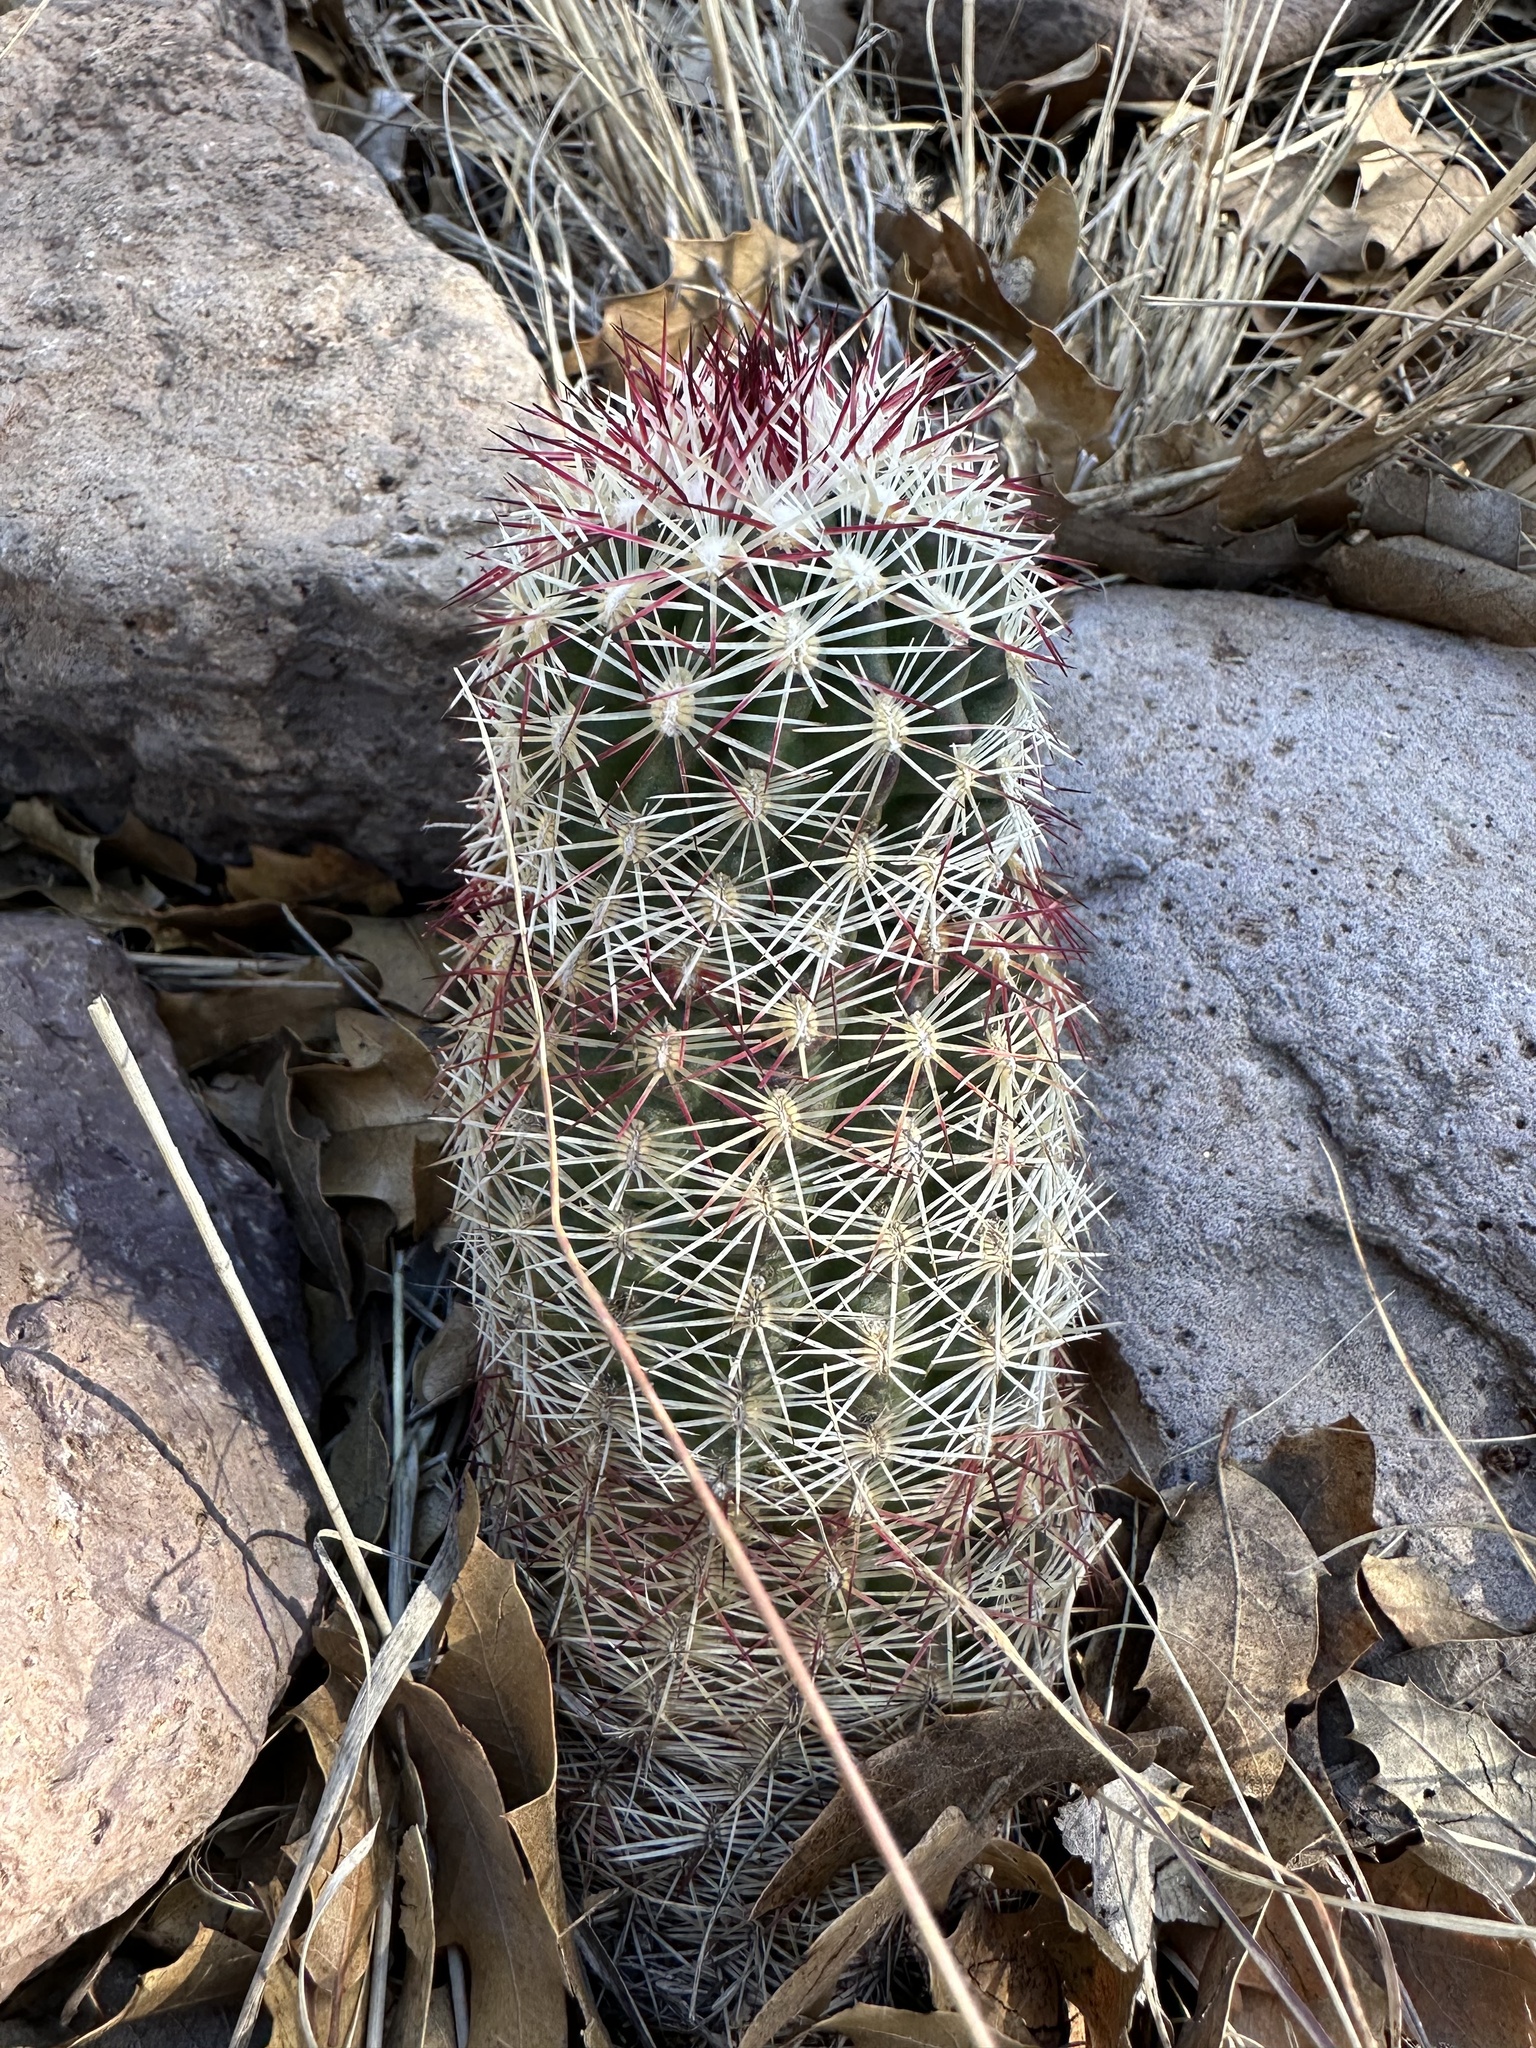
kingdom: Plantae
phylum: Tracheophyta
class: Magnoliopsida
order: Caryophyllales
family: Cactaceae
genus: Echinocereus
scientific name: Echinocereus viridiflorus
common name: Nylon hedgehog cactus
